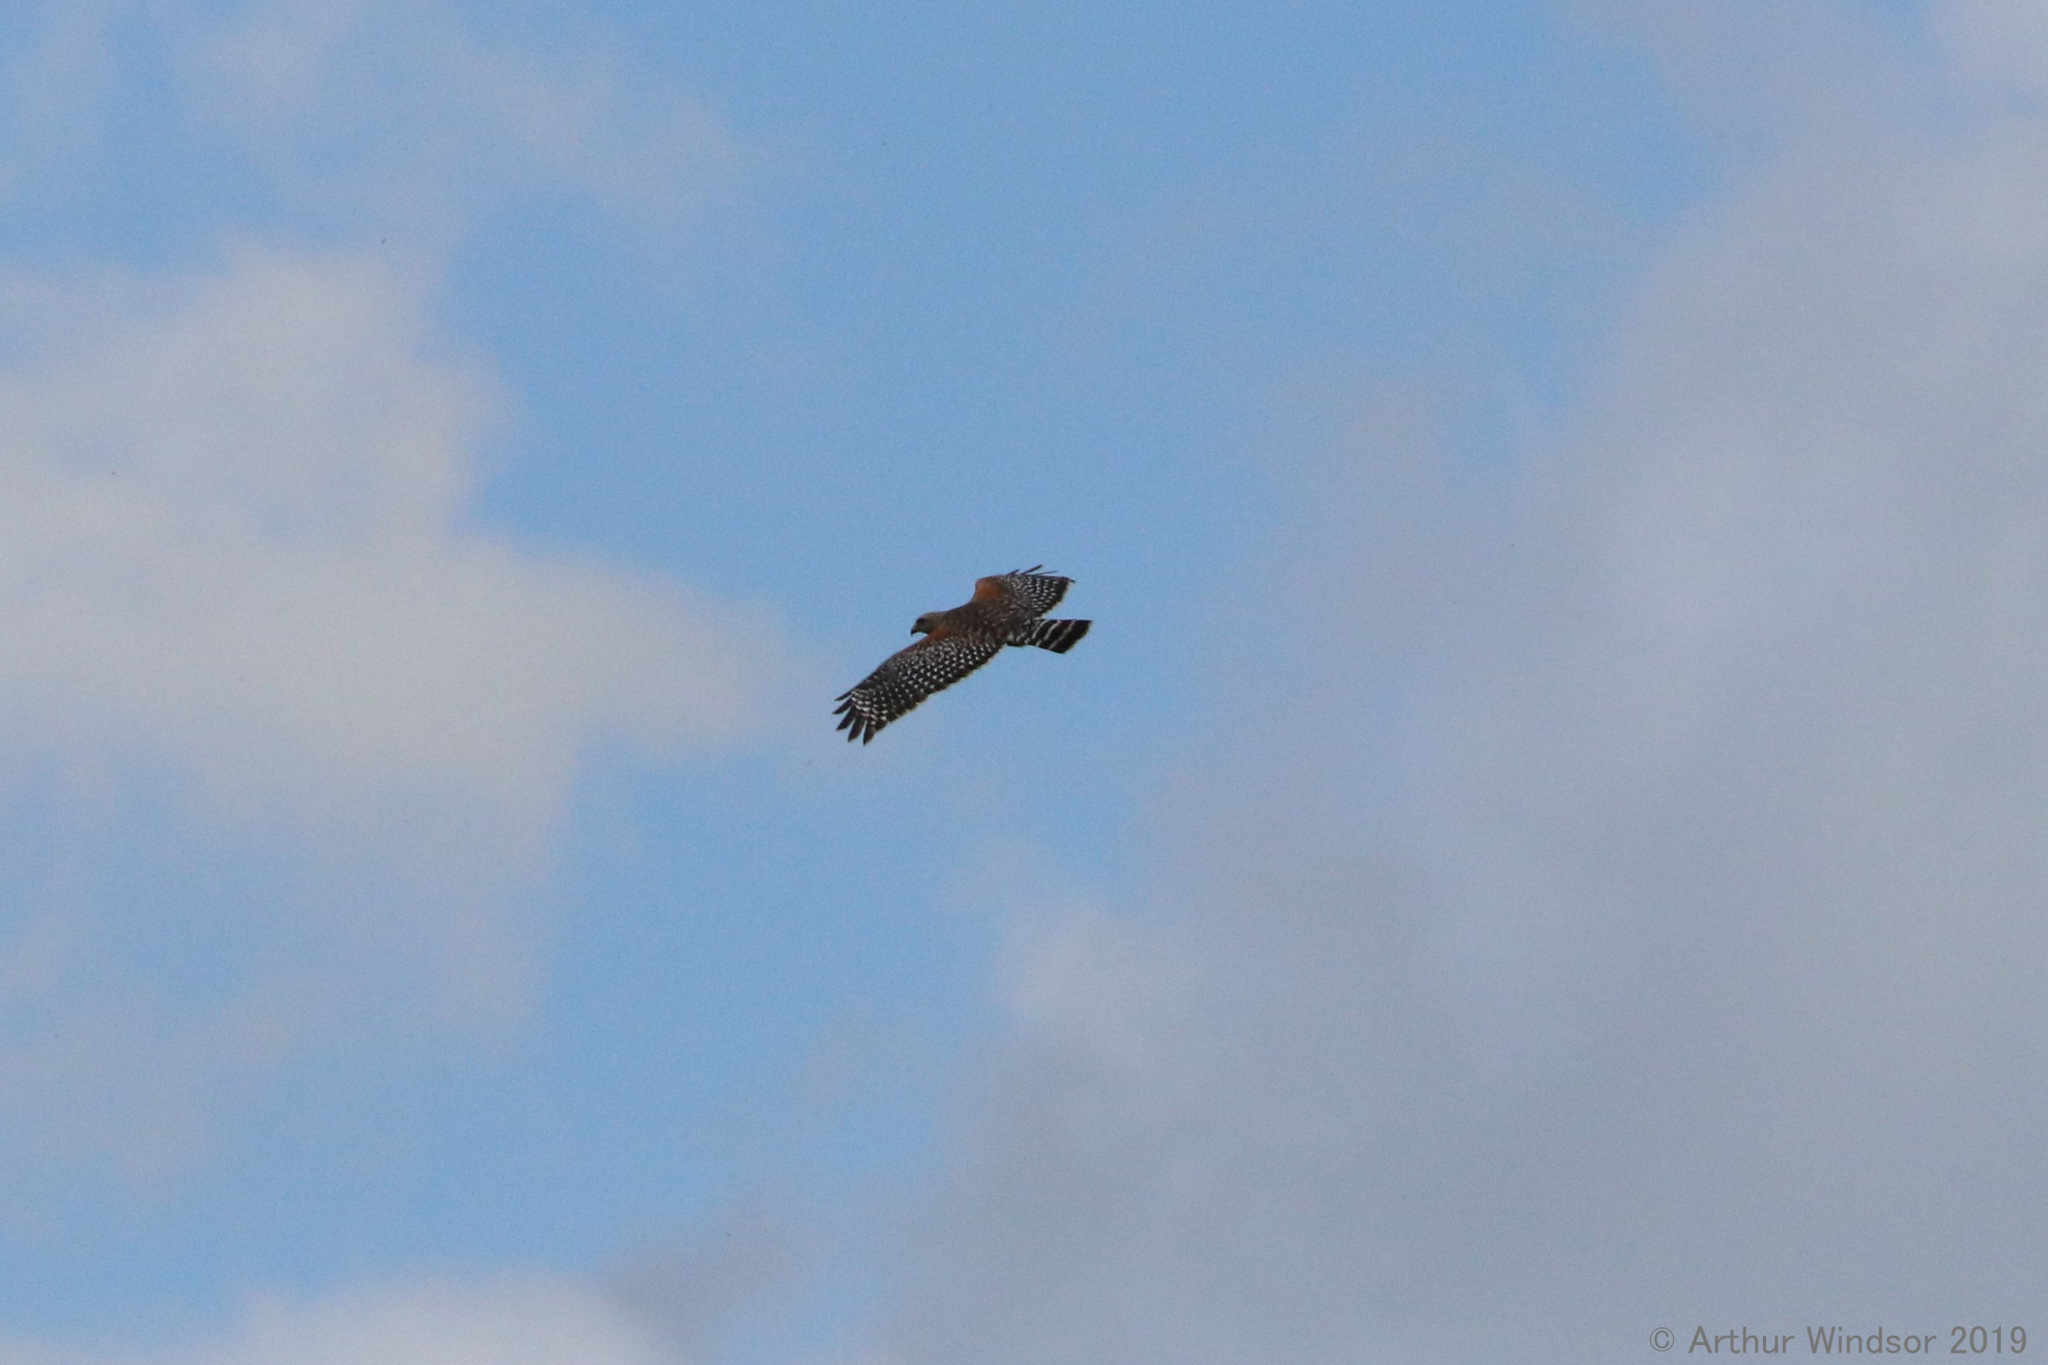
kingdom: Animalia
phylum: Chordata
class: Aves
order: Accipitriformes
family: Accipitridae
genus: Buteo
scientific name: Buteo lineatus
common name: Red-shouldered hawk
